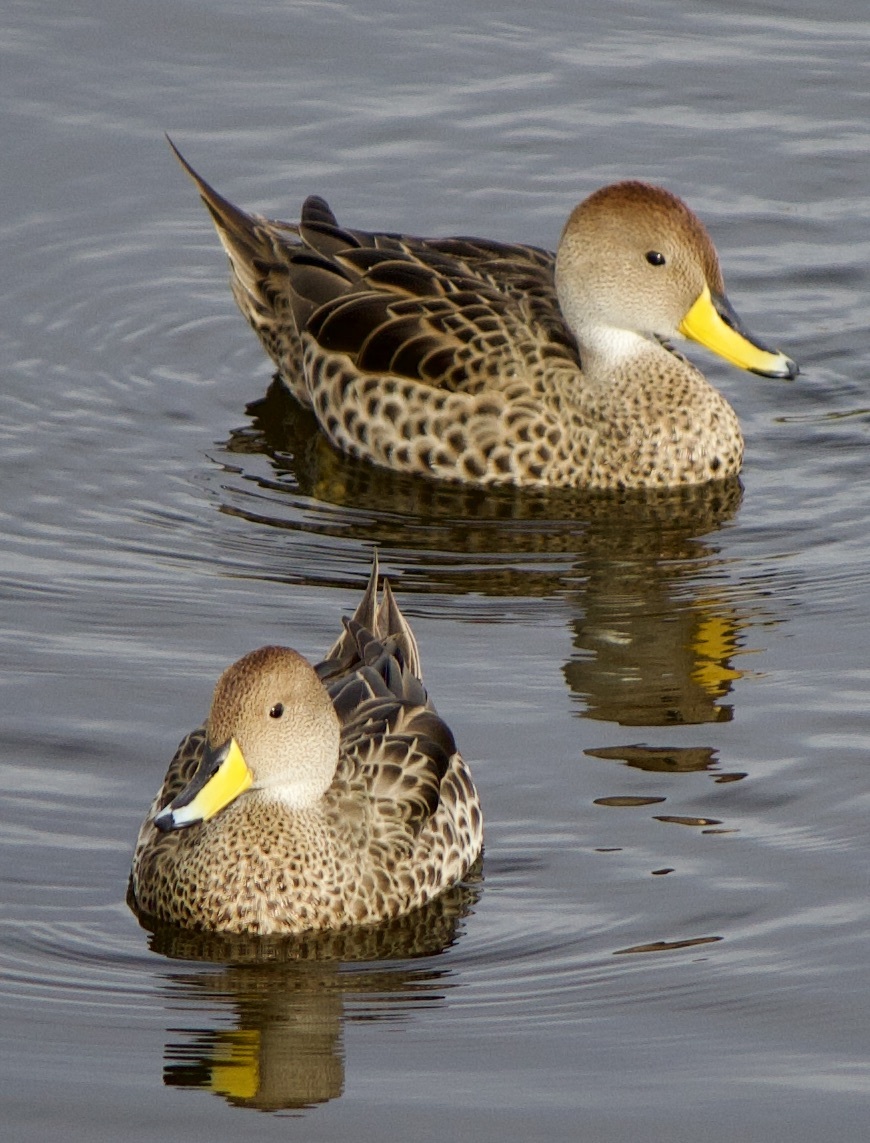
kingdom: Animalia
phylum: Chordata
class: Aves
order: Anseriformes
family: Anatidae
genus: Anas
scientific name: Anas georgica
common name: Yellow-billed pintail
